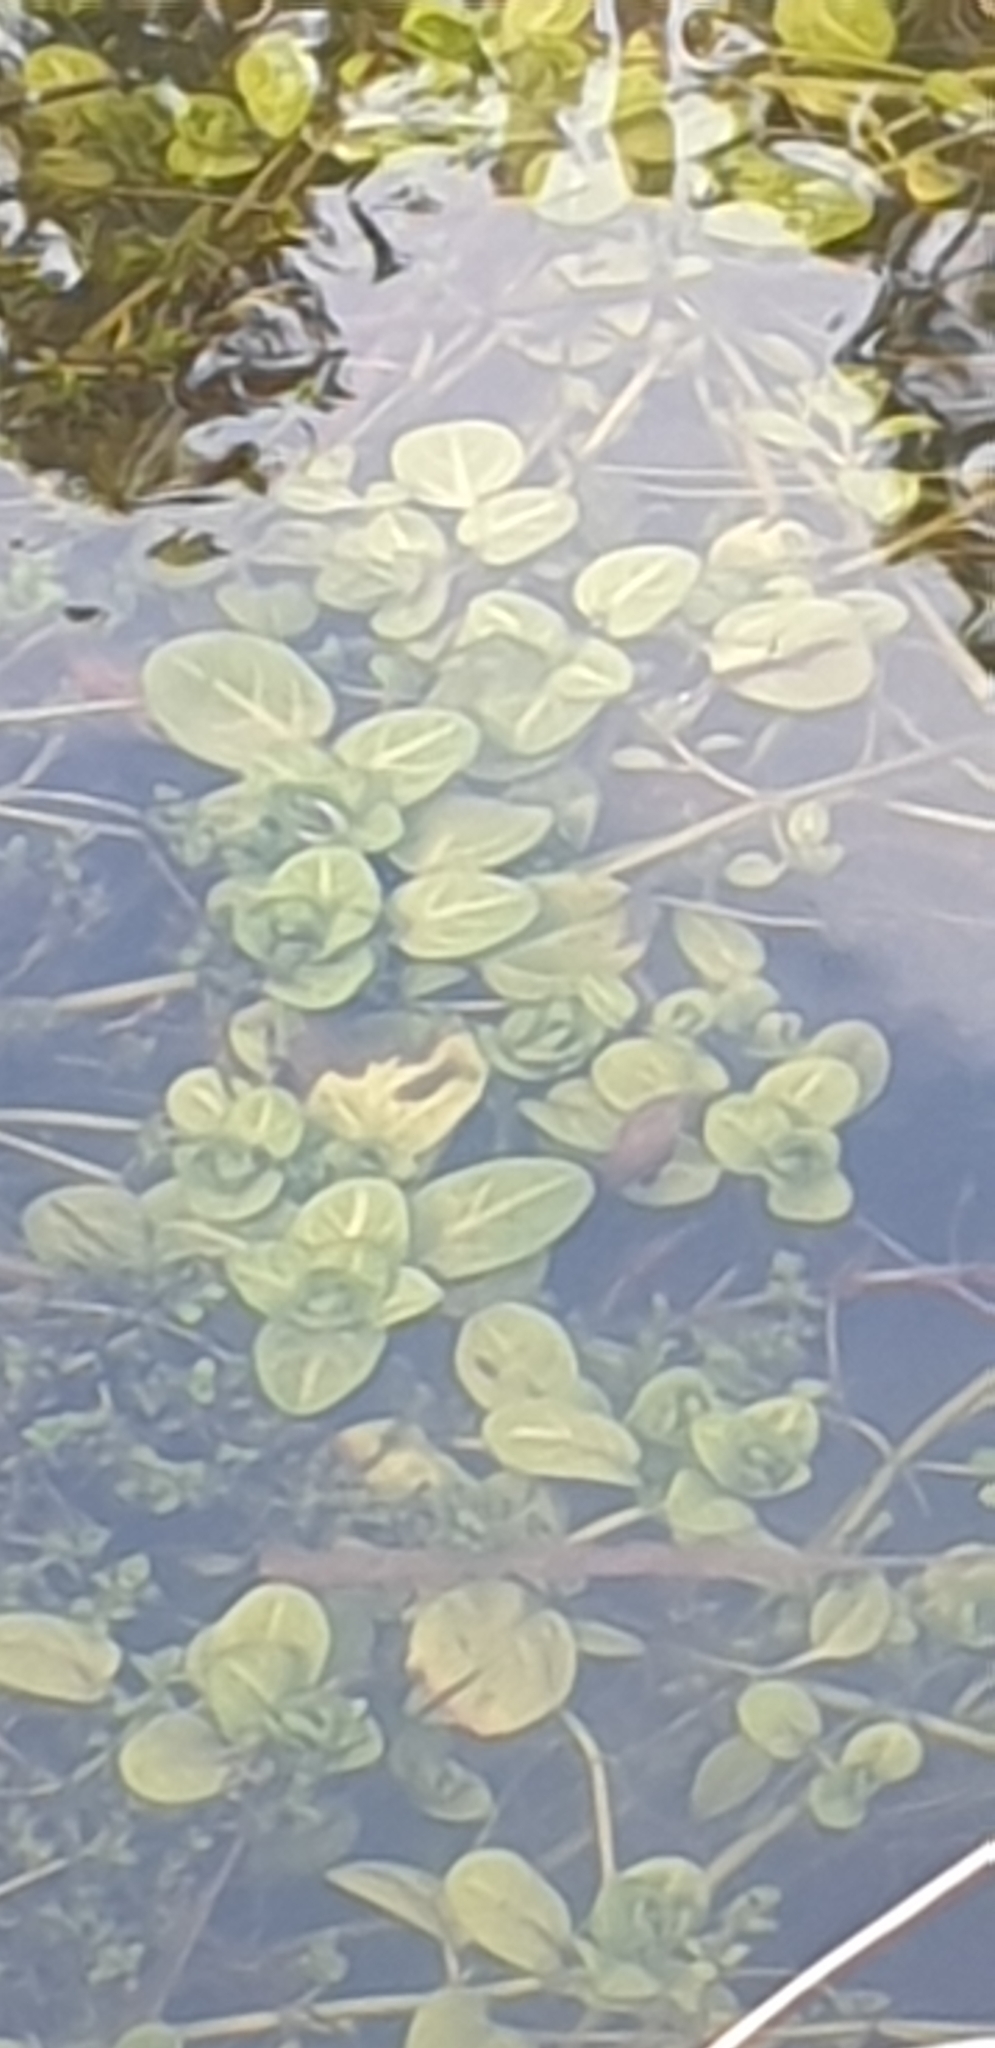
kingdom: Plantae
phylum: Tracheophyta
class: Magnoliopsida
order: Lamiales
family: Plantaginaceae
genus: Veronica
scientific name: Veronica beccabunga
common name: Brooklime
